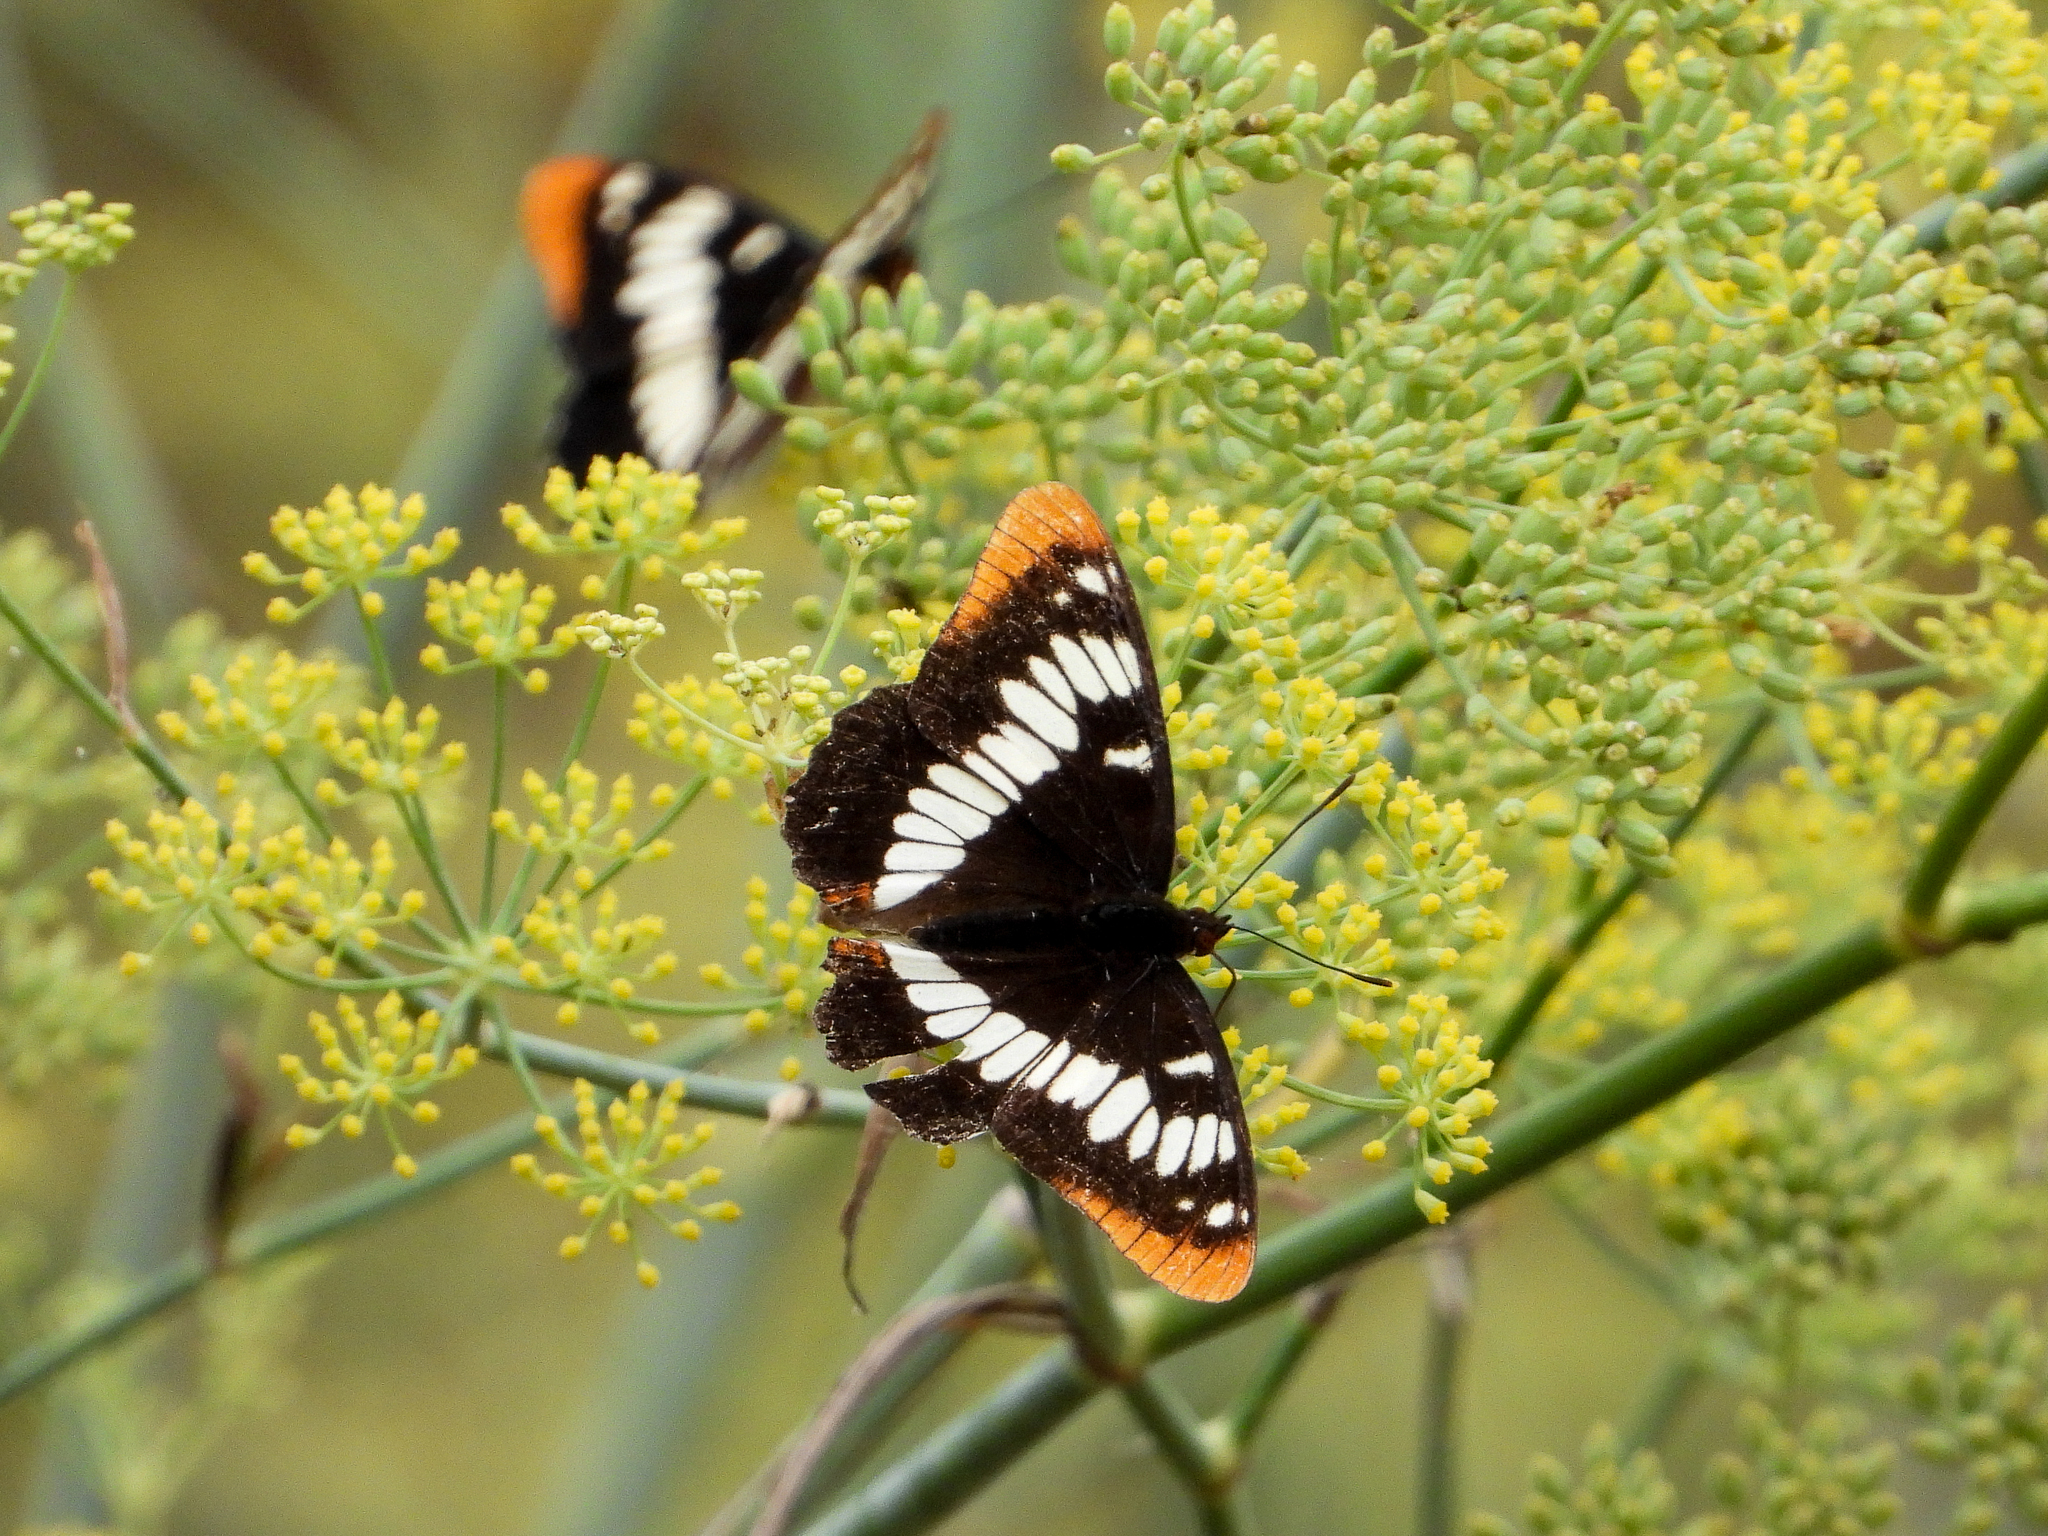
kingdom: Animalia
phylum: Arthropoda
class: Insecta
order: Lepidoptera
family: Nymphalidae
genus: Limenitis
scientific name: Limenitis lorquini
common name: Lorquin's admiral
